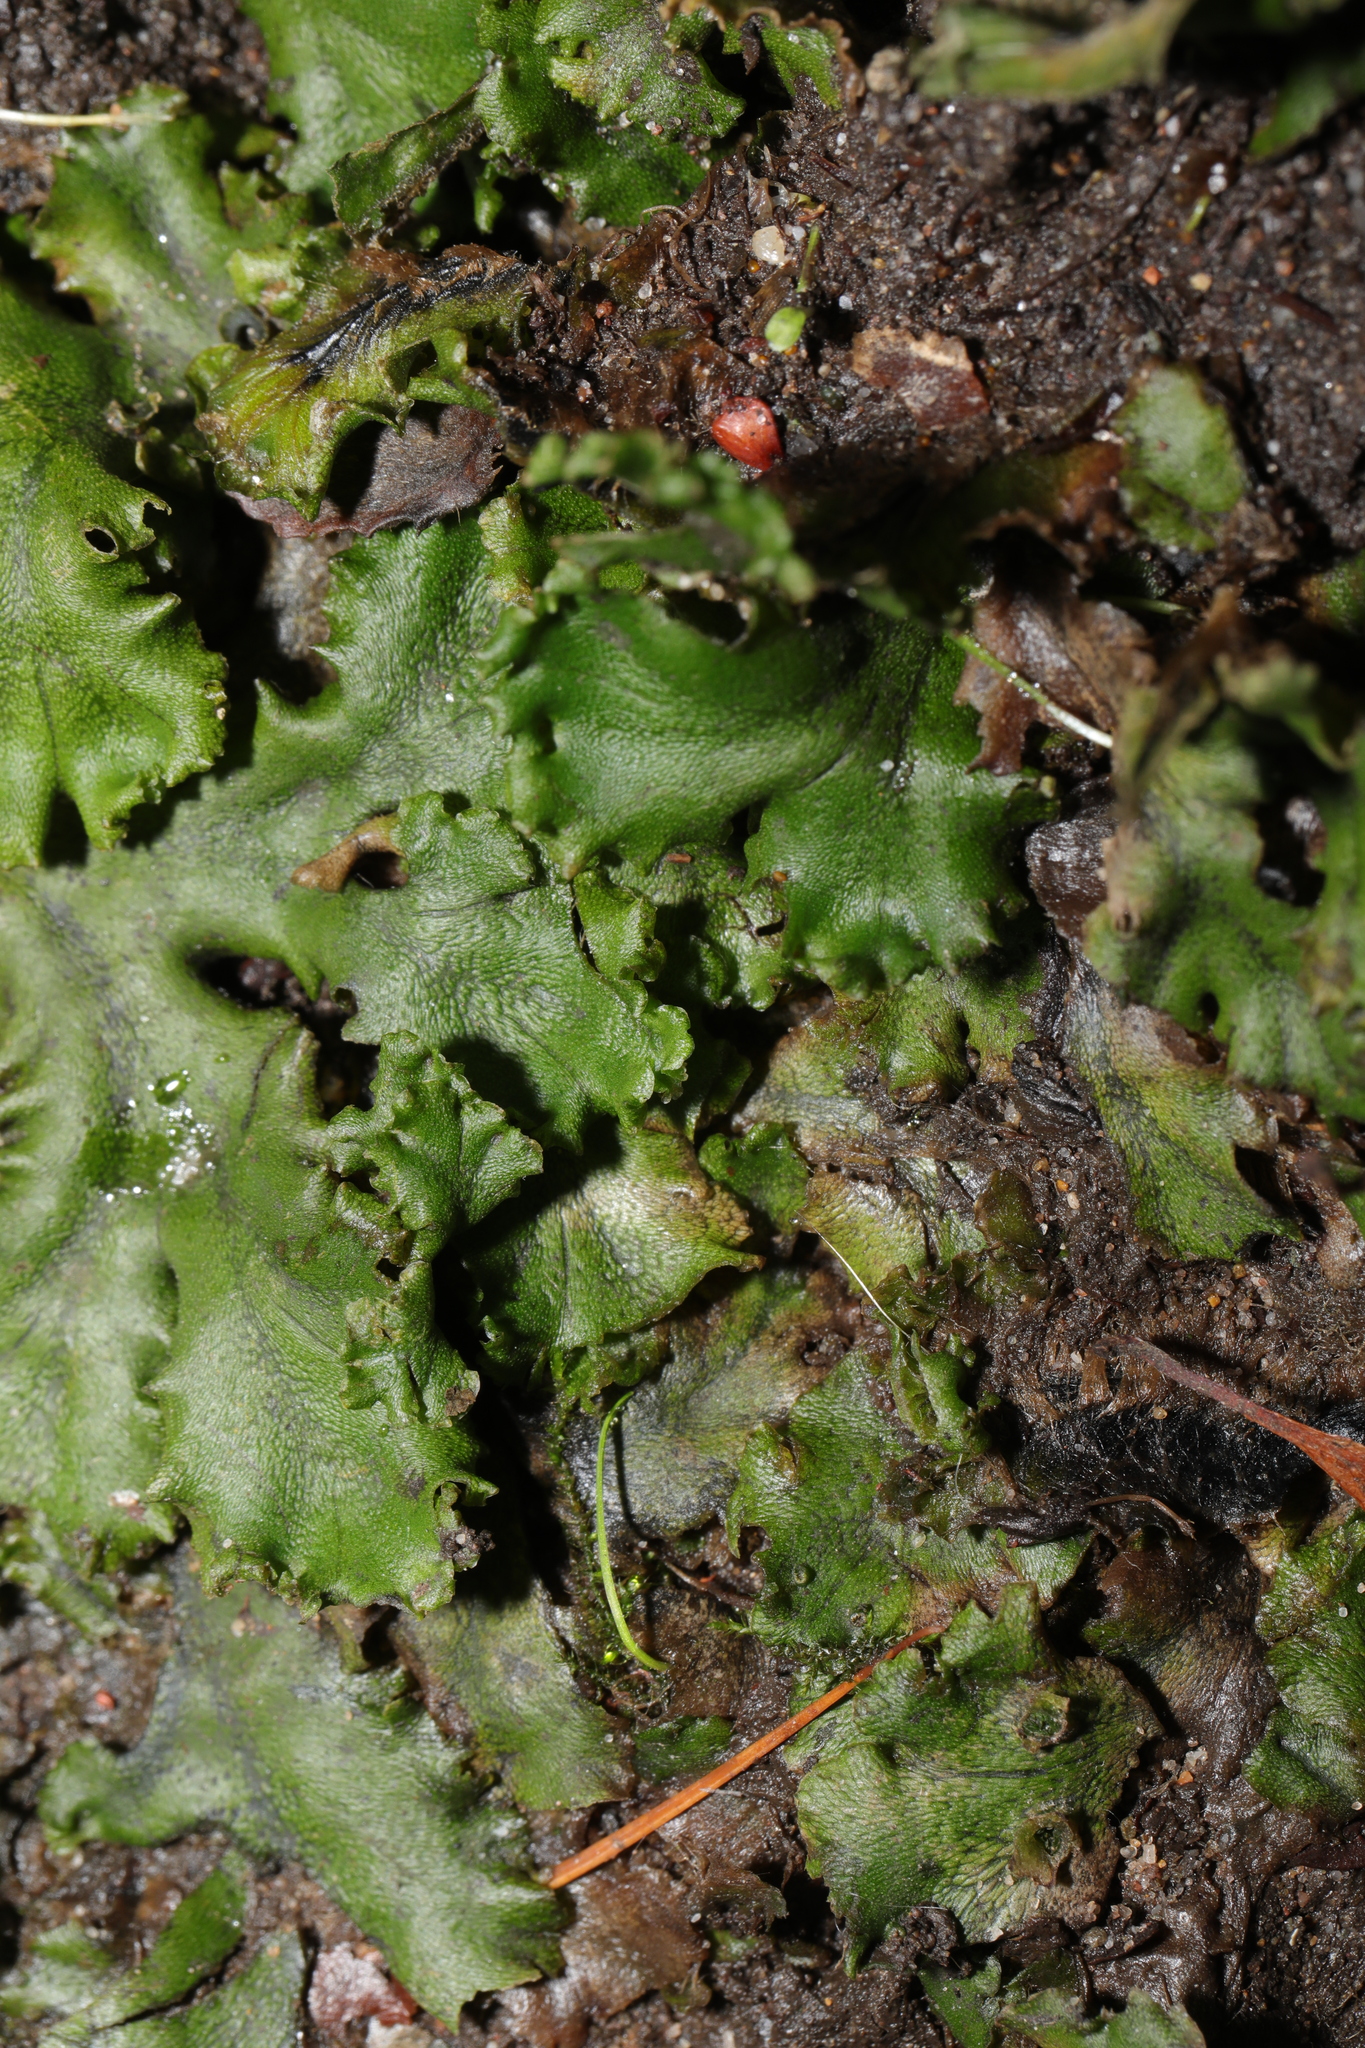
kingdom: Plantae
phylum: Marchantiophyta
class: Marchantiopsida
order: Marchantiales
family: Marchantiaceae
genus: Marchantia
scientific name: Marchantia polymorpha
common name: Common liverwort
